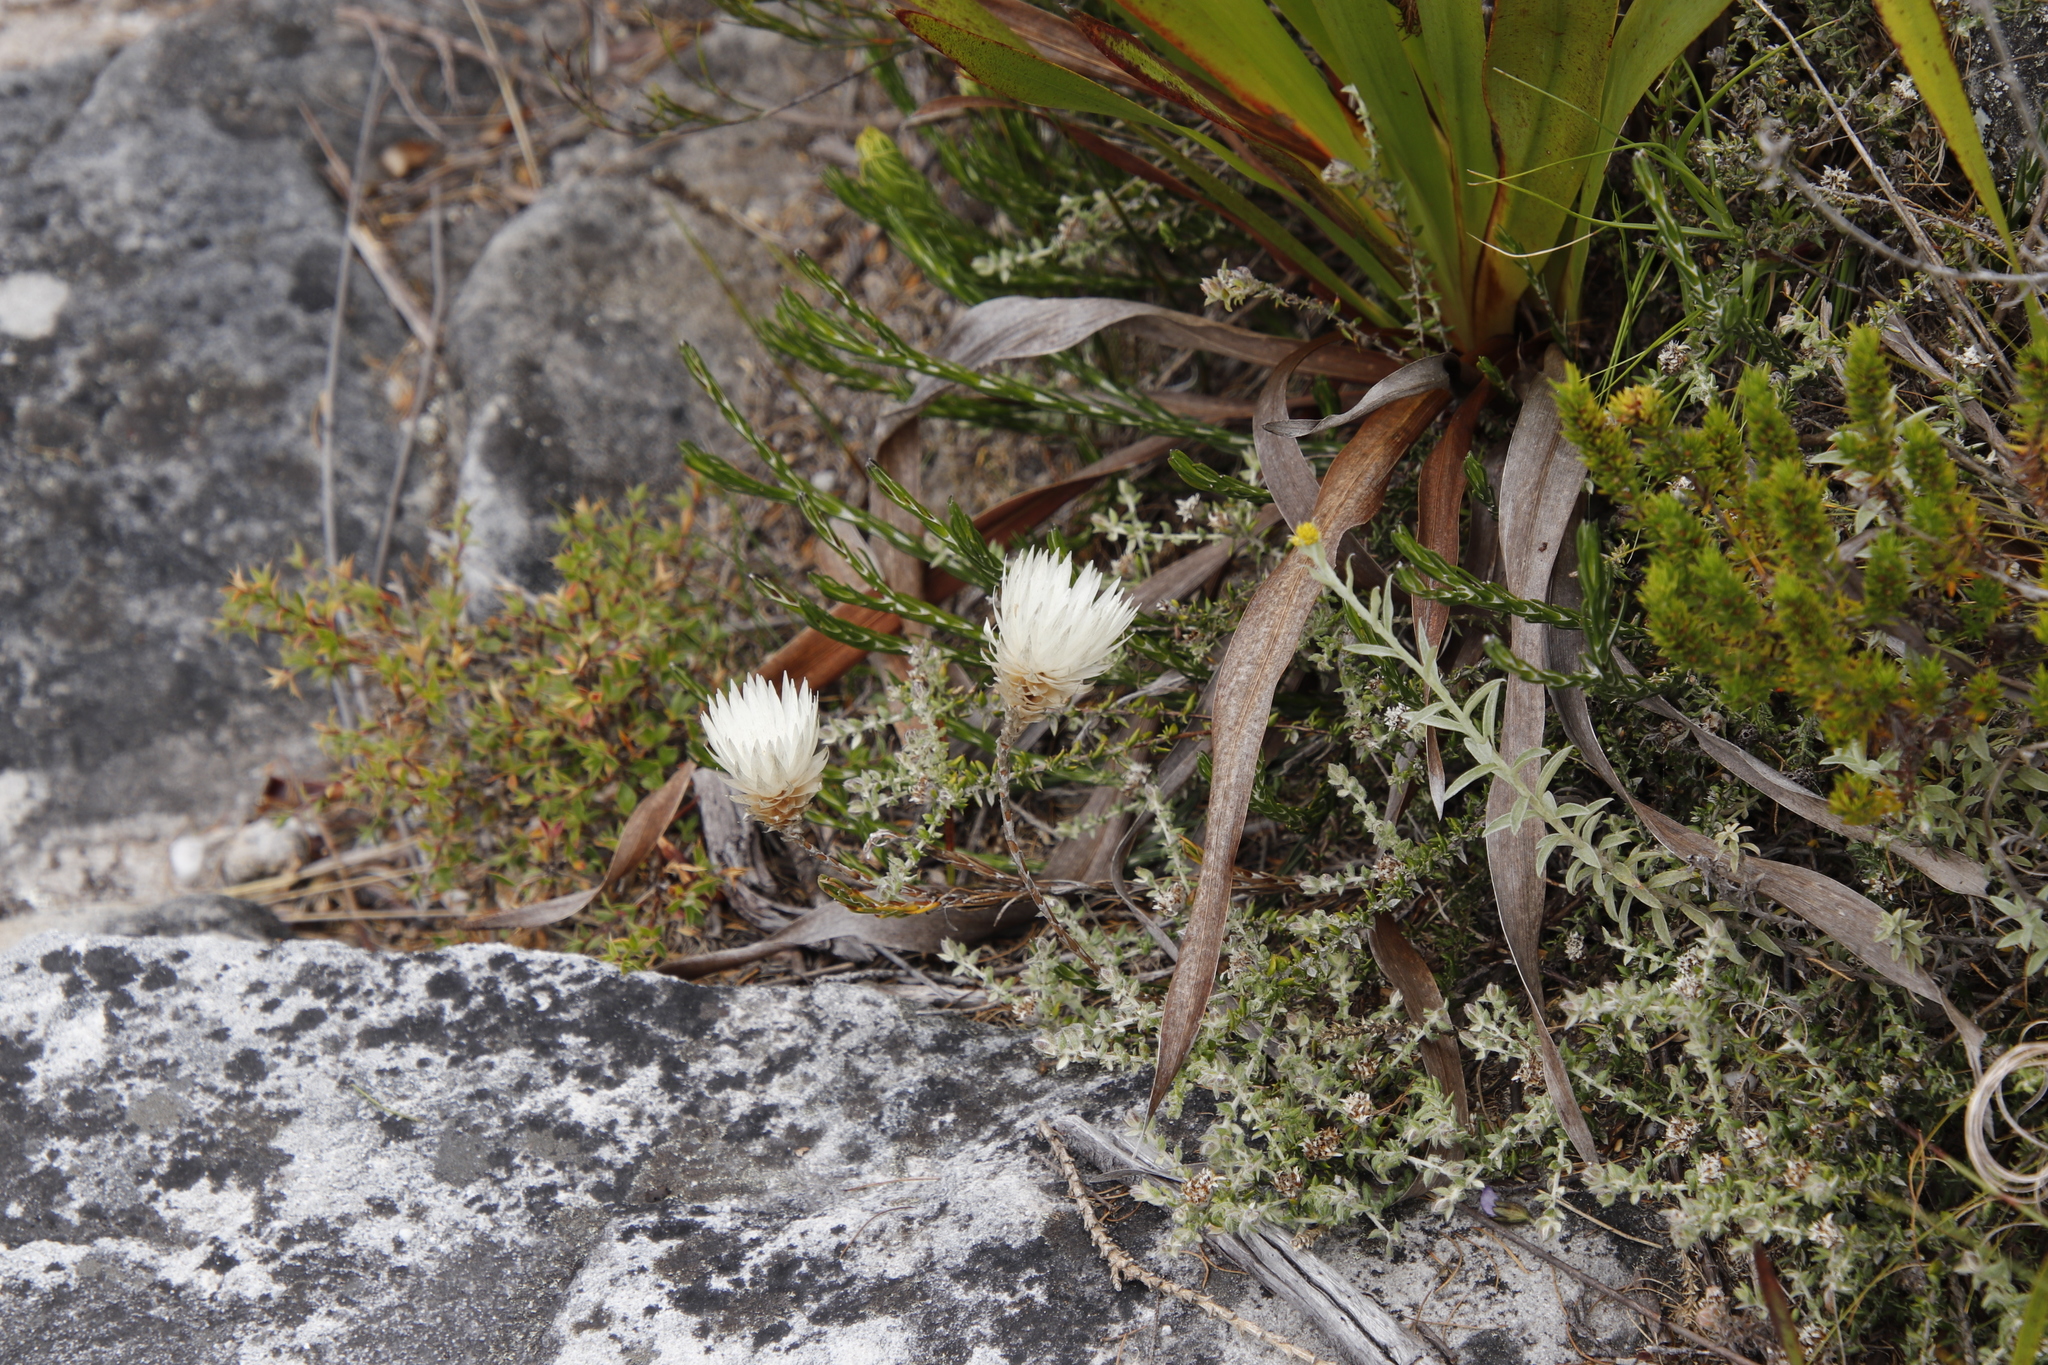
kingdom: Plantae
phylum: Tracheophyta
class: Magnoliopsida
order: Asterales
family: Asteraceae
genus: Edmondia
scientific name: Edmondia pinifolia
